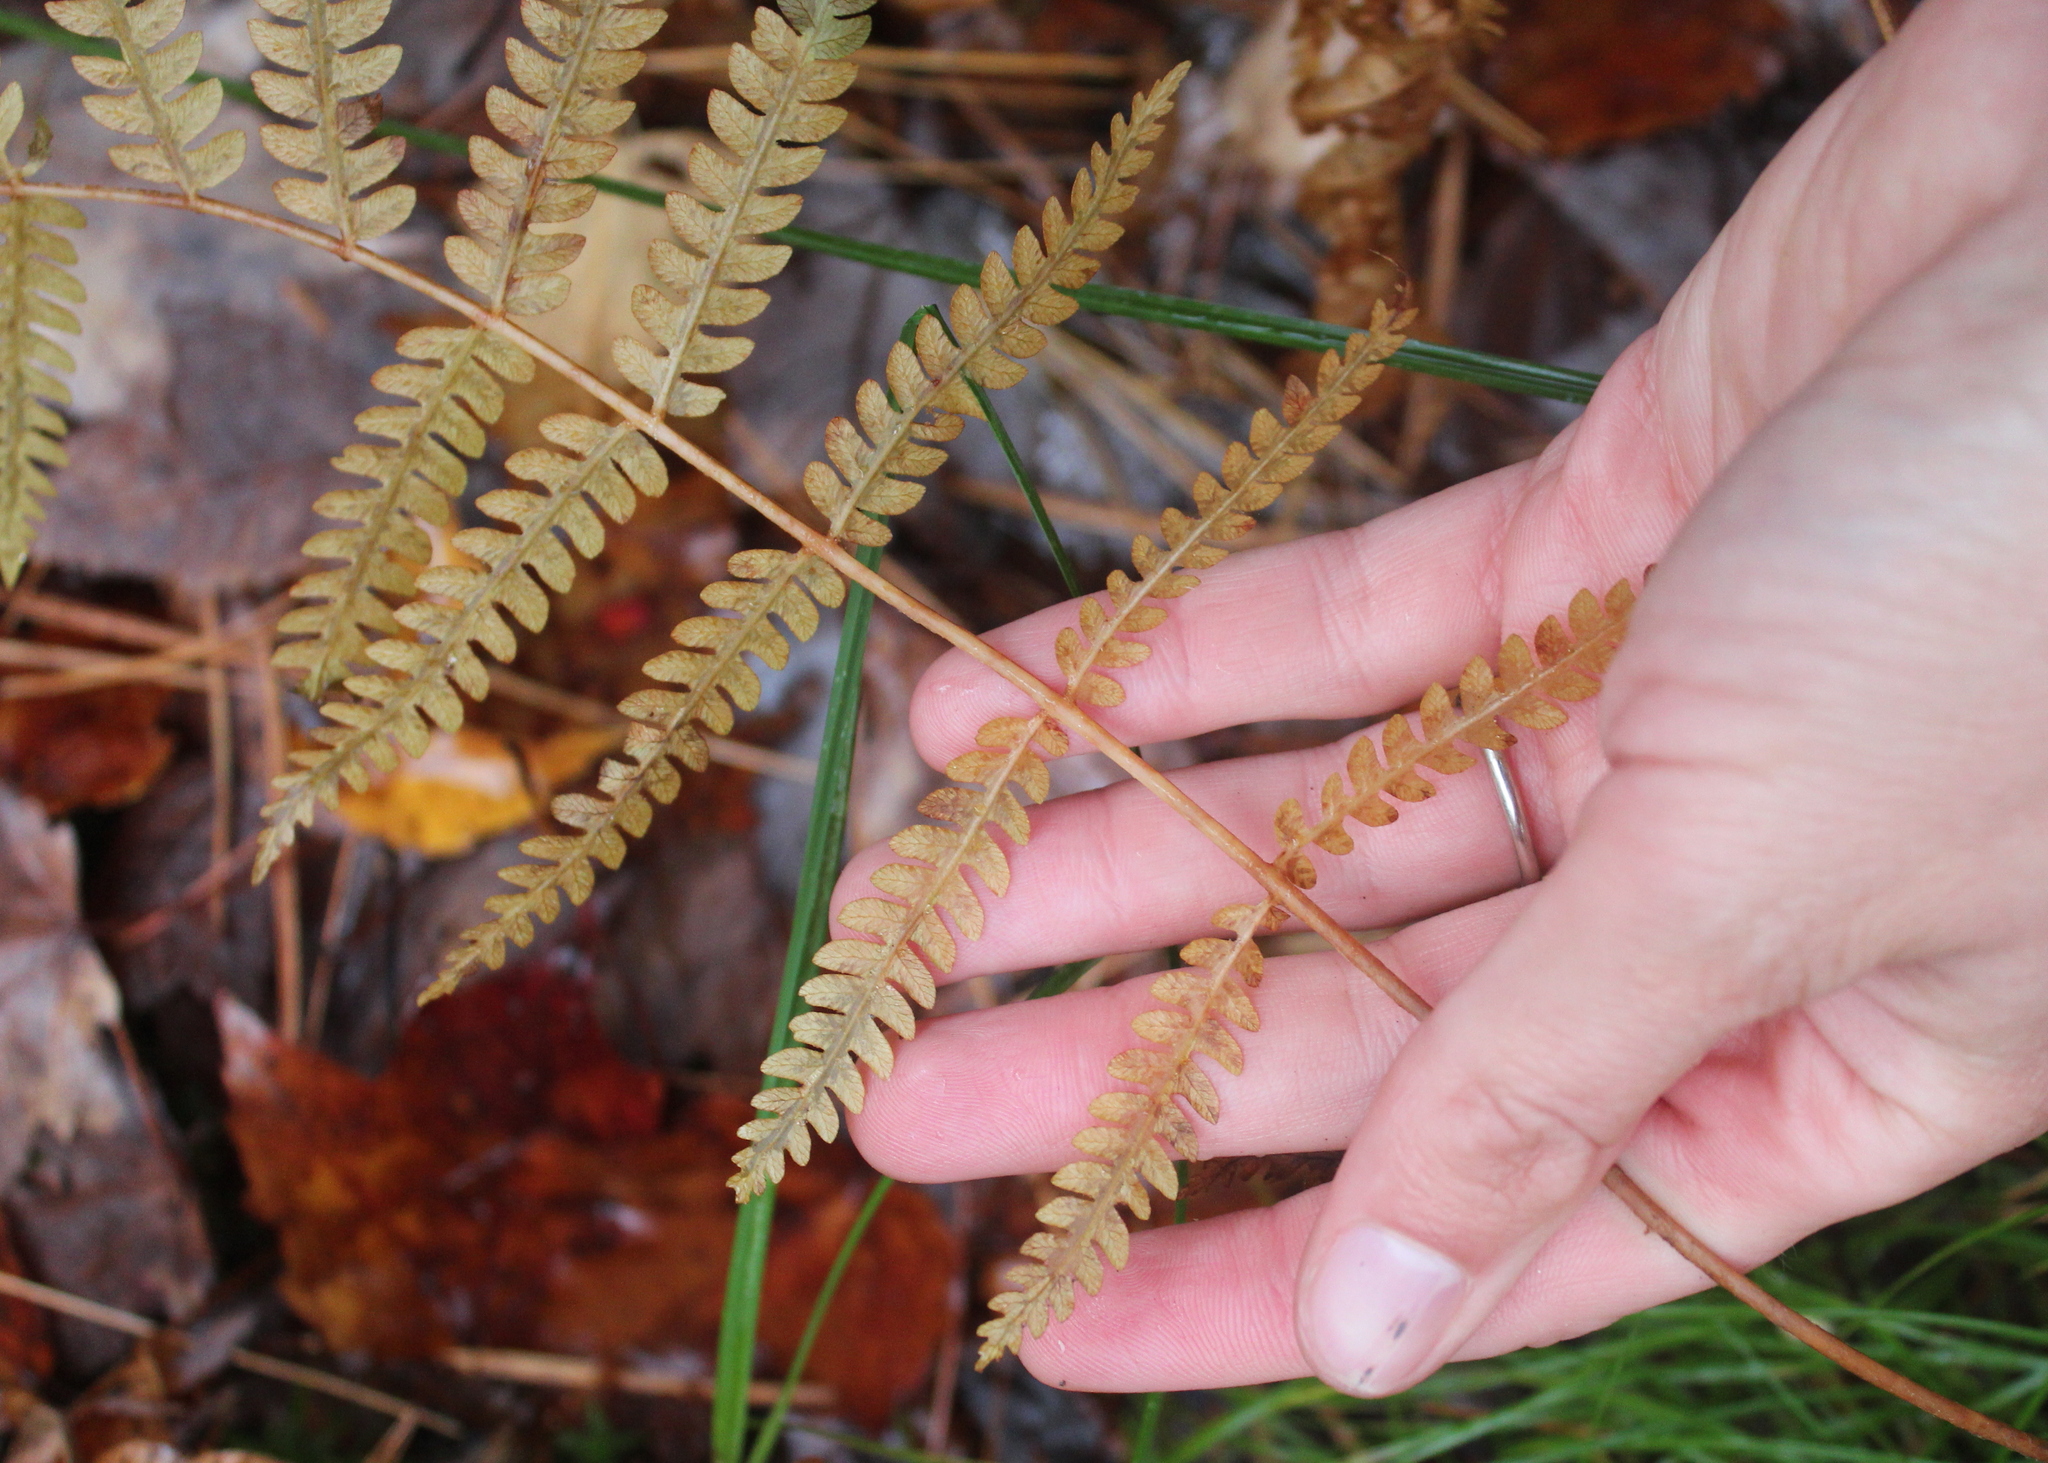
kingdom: Plantae
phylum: Tracheophyta
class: Polypodiopsida
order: Polypodiales
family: Thelypteridaceae
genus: Thelypteris
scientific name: Thelypteris palustris
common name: Marsh fern
